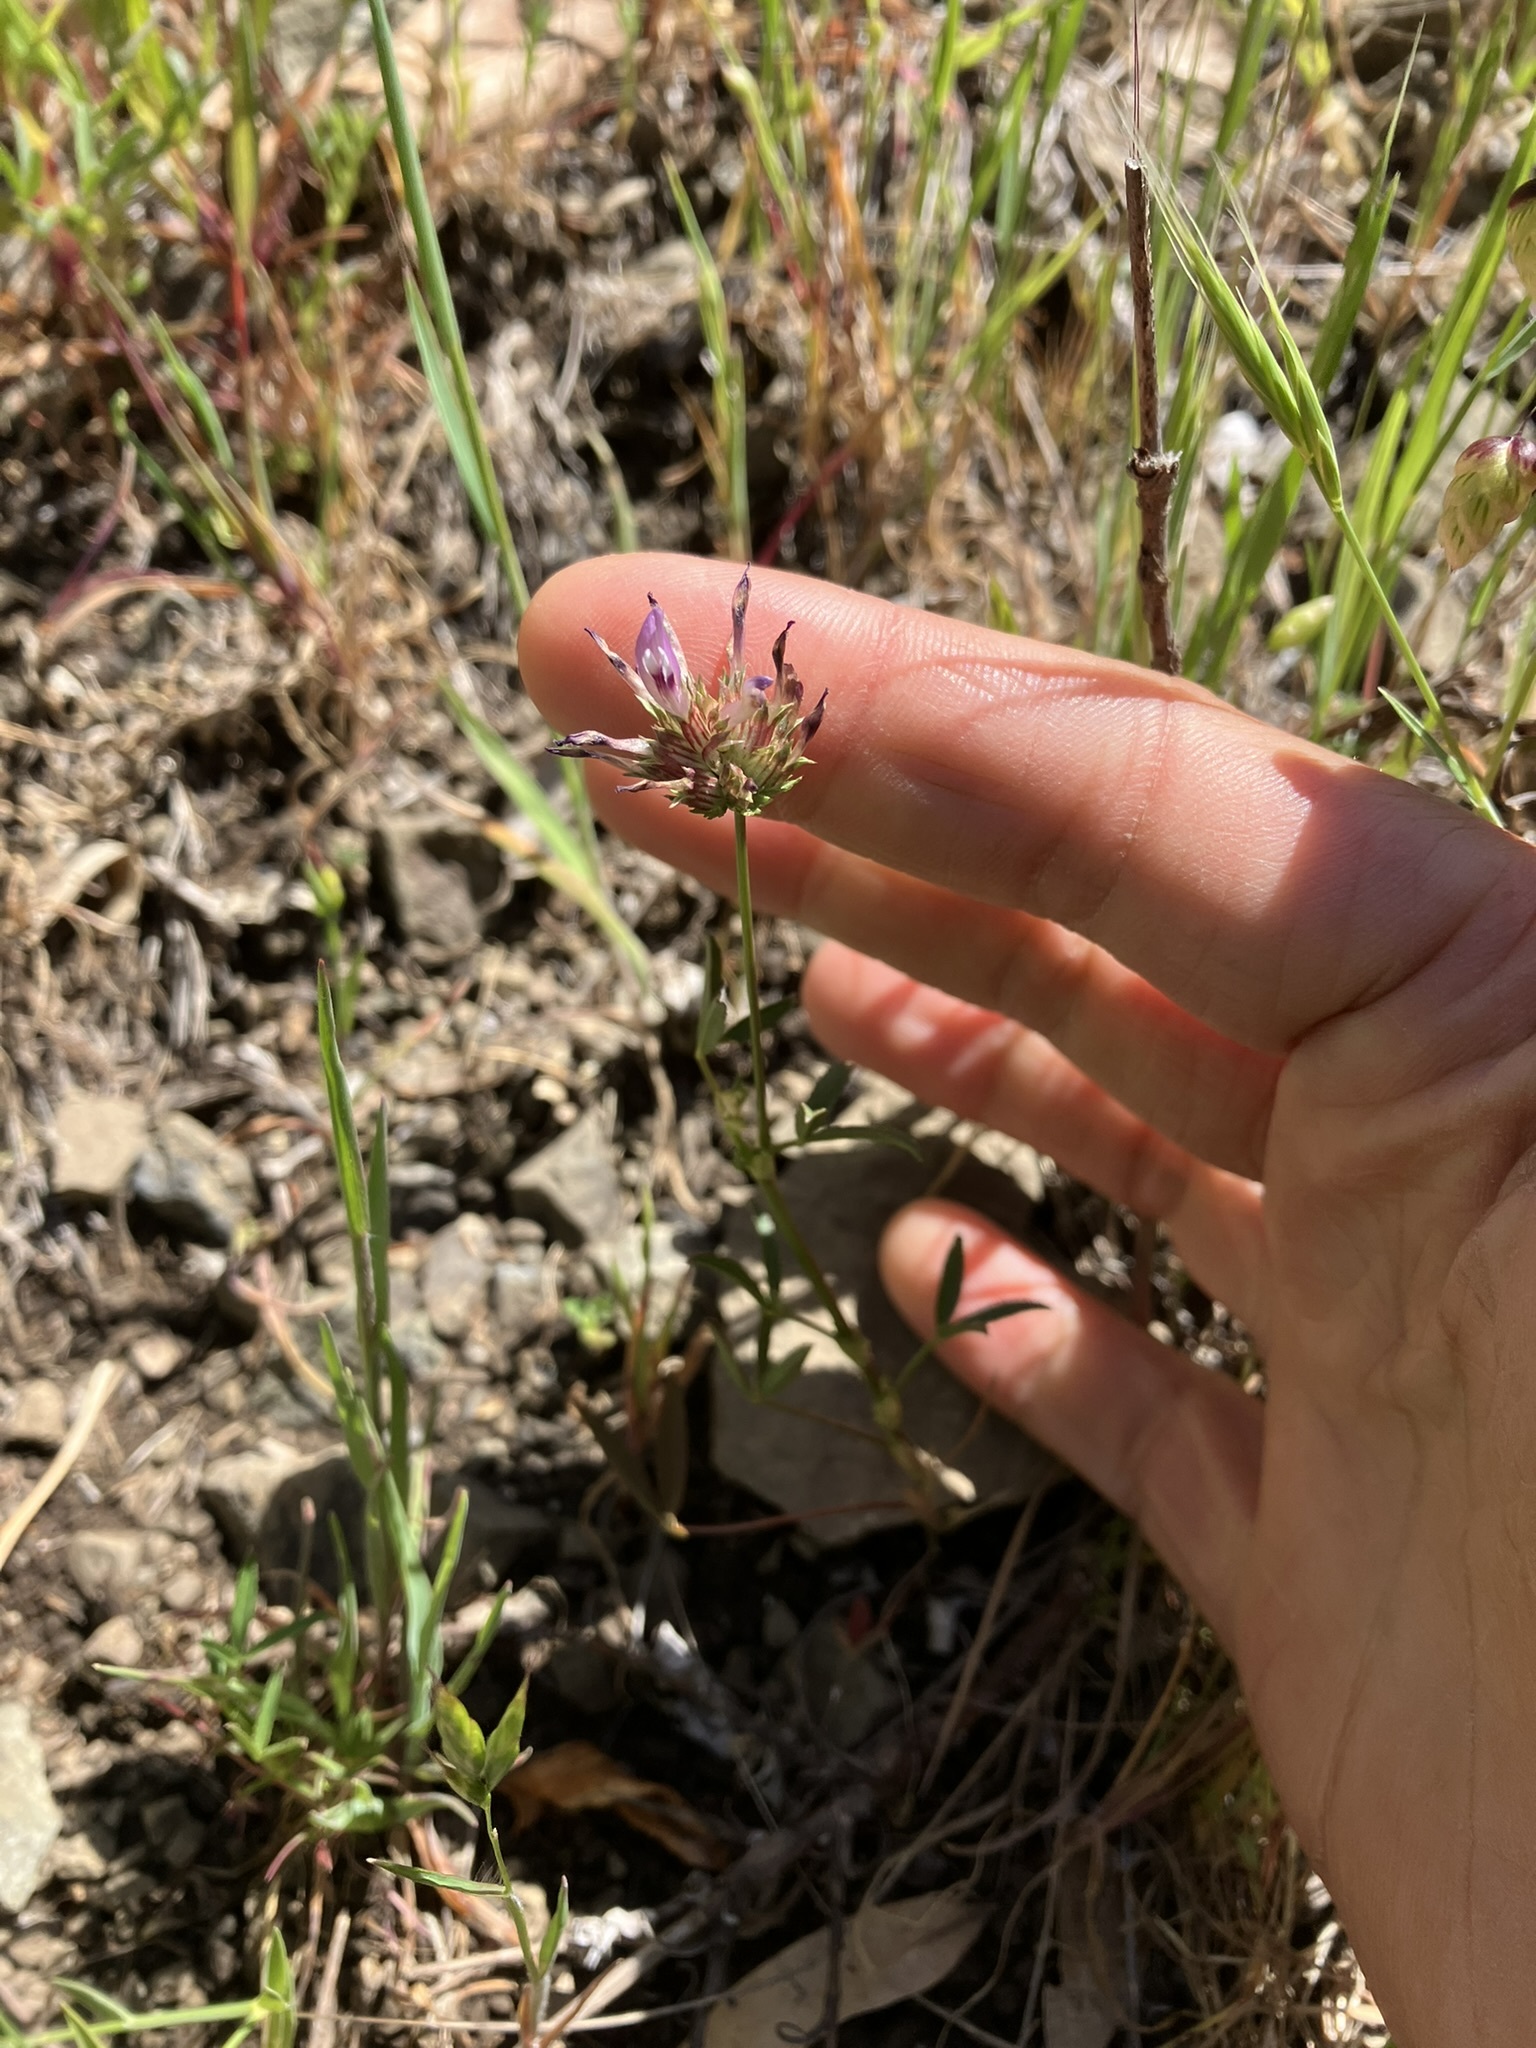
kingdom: Plantae
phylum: Tracheophyta
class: Magnoliopsida
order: Fabales
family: Fabaceae
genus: Trifolium
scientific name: Trifolium willdenovii
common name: Tomcat clover
